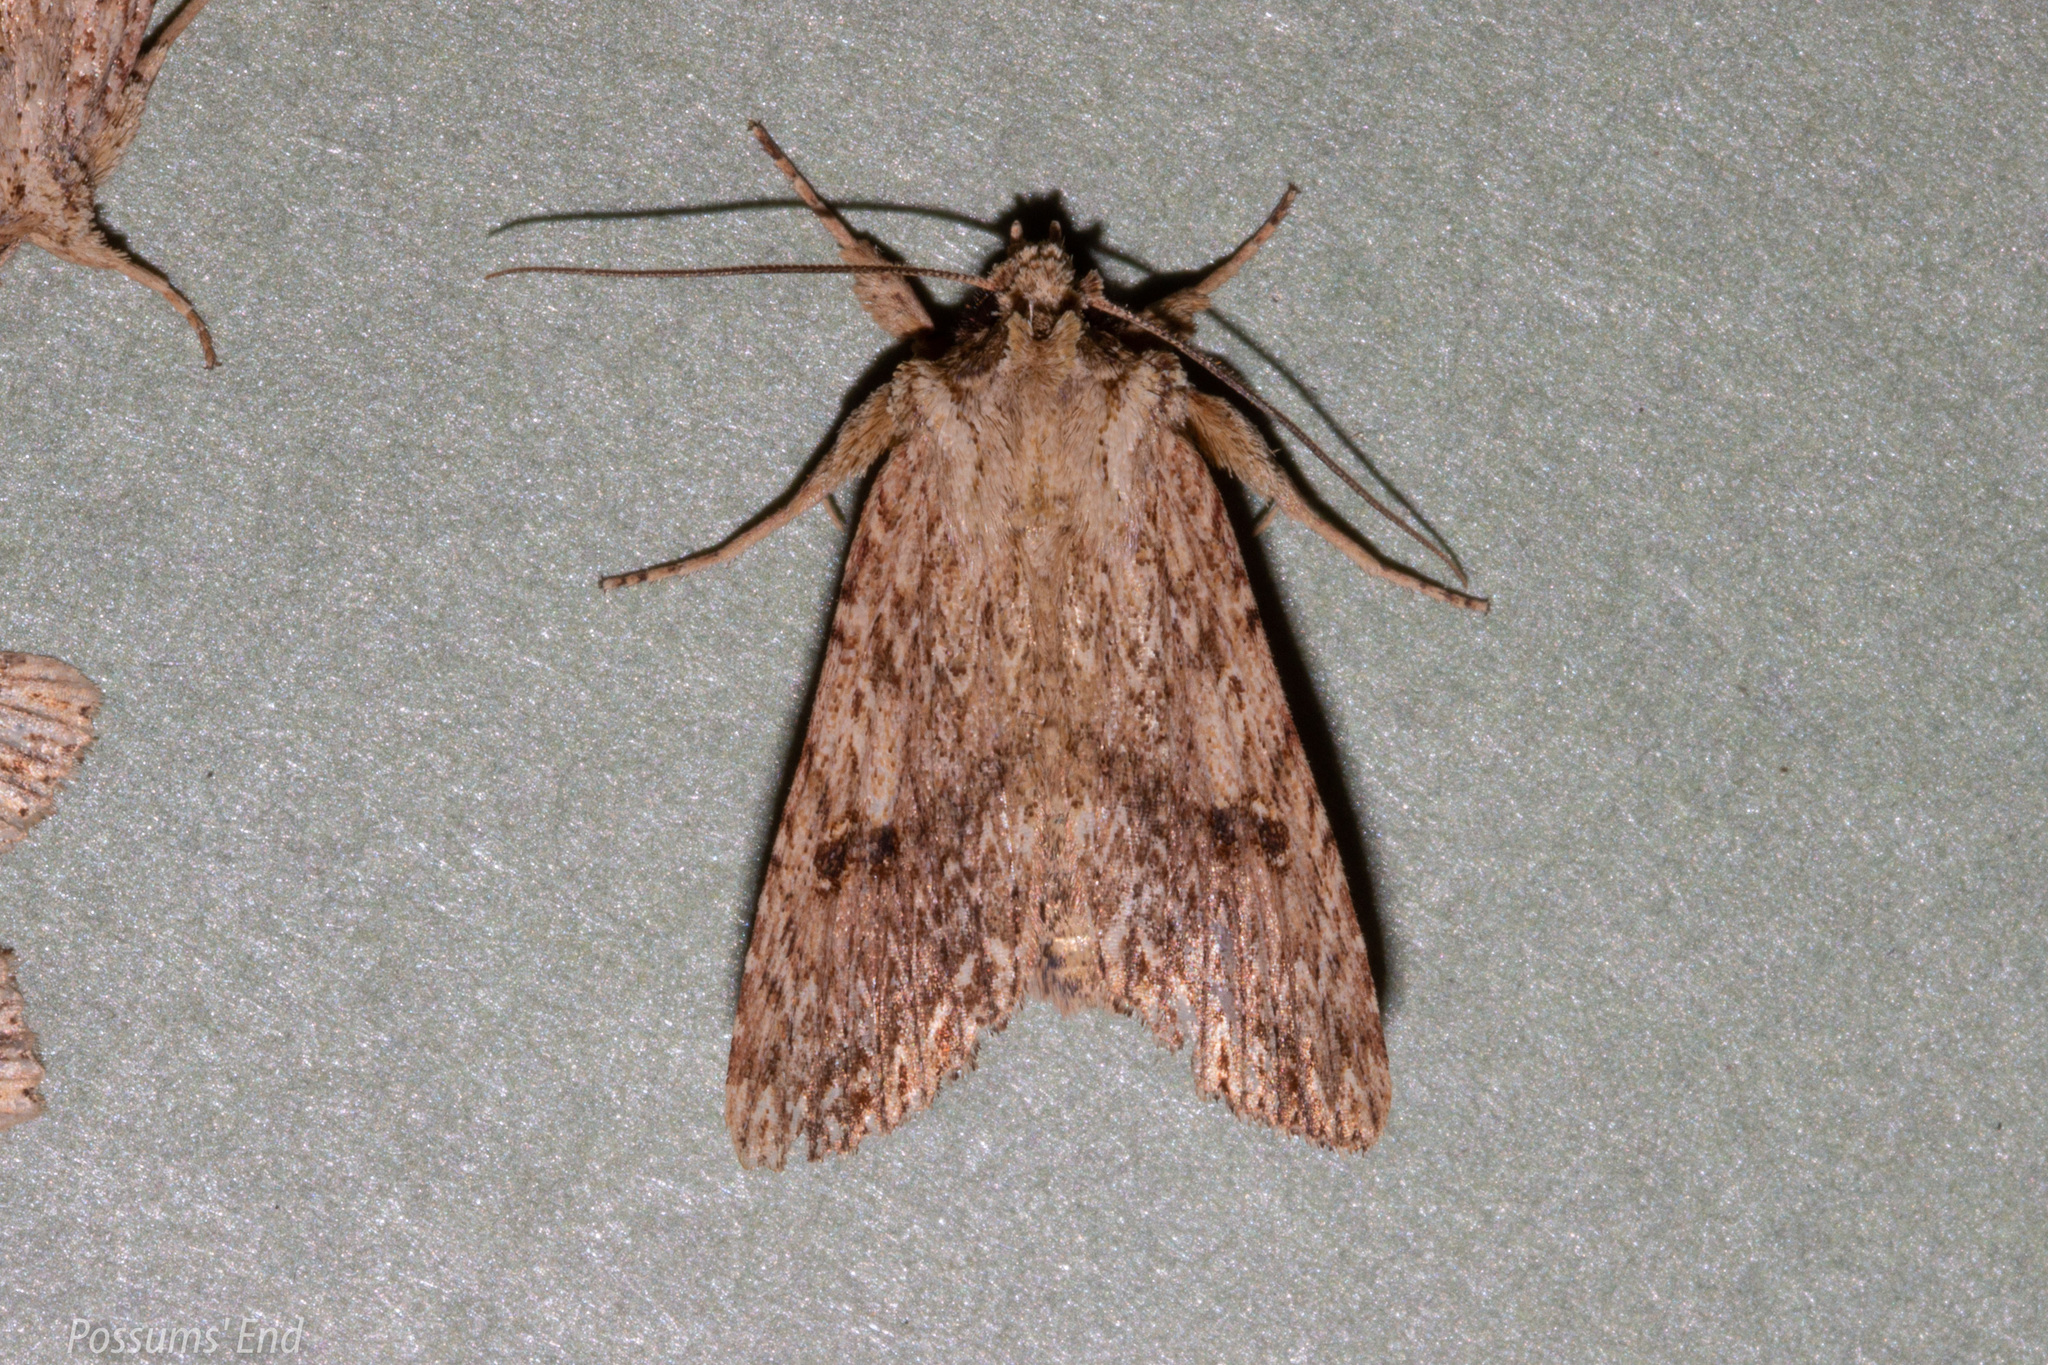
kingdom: Animalia
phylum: Arthropoda
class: Insecta
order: Lepidoptera
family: Noctuidae
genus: Meterana
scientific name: Meterana pansicolor
